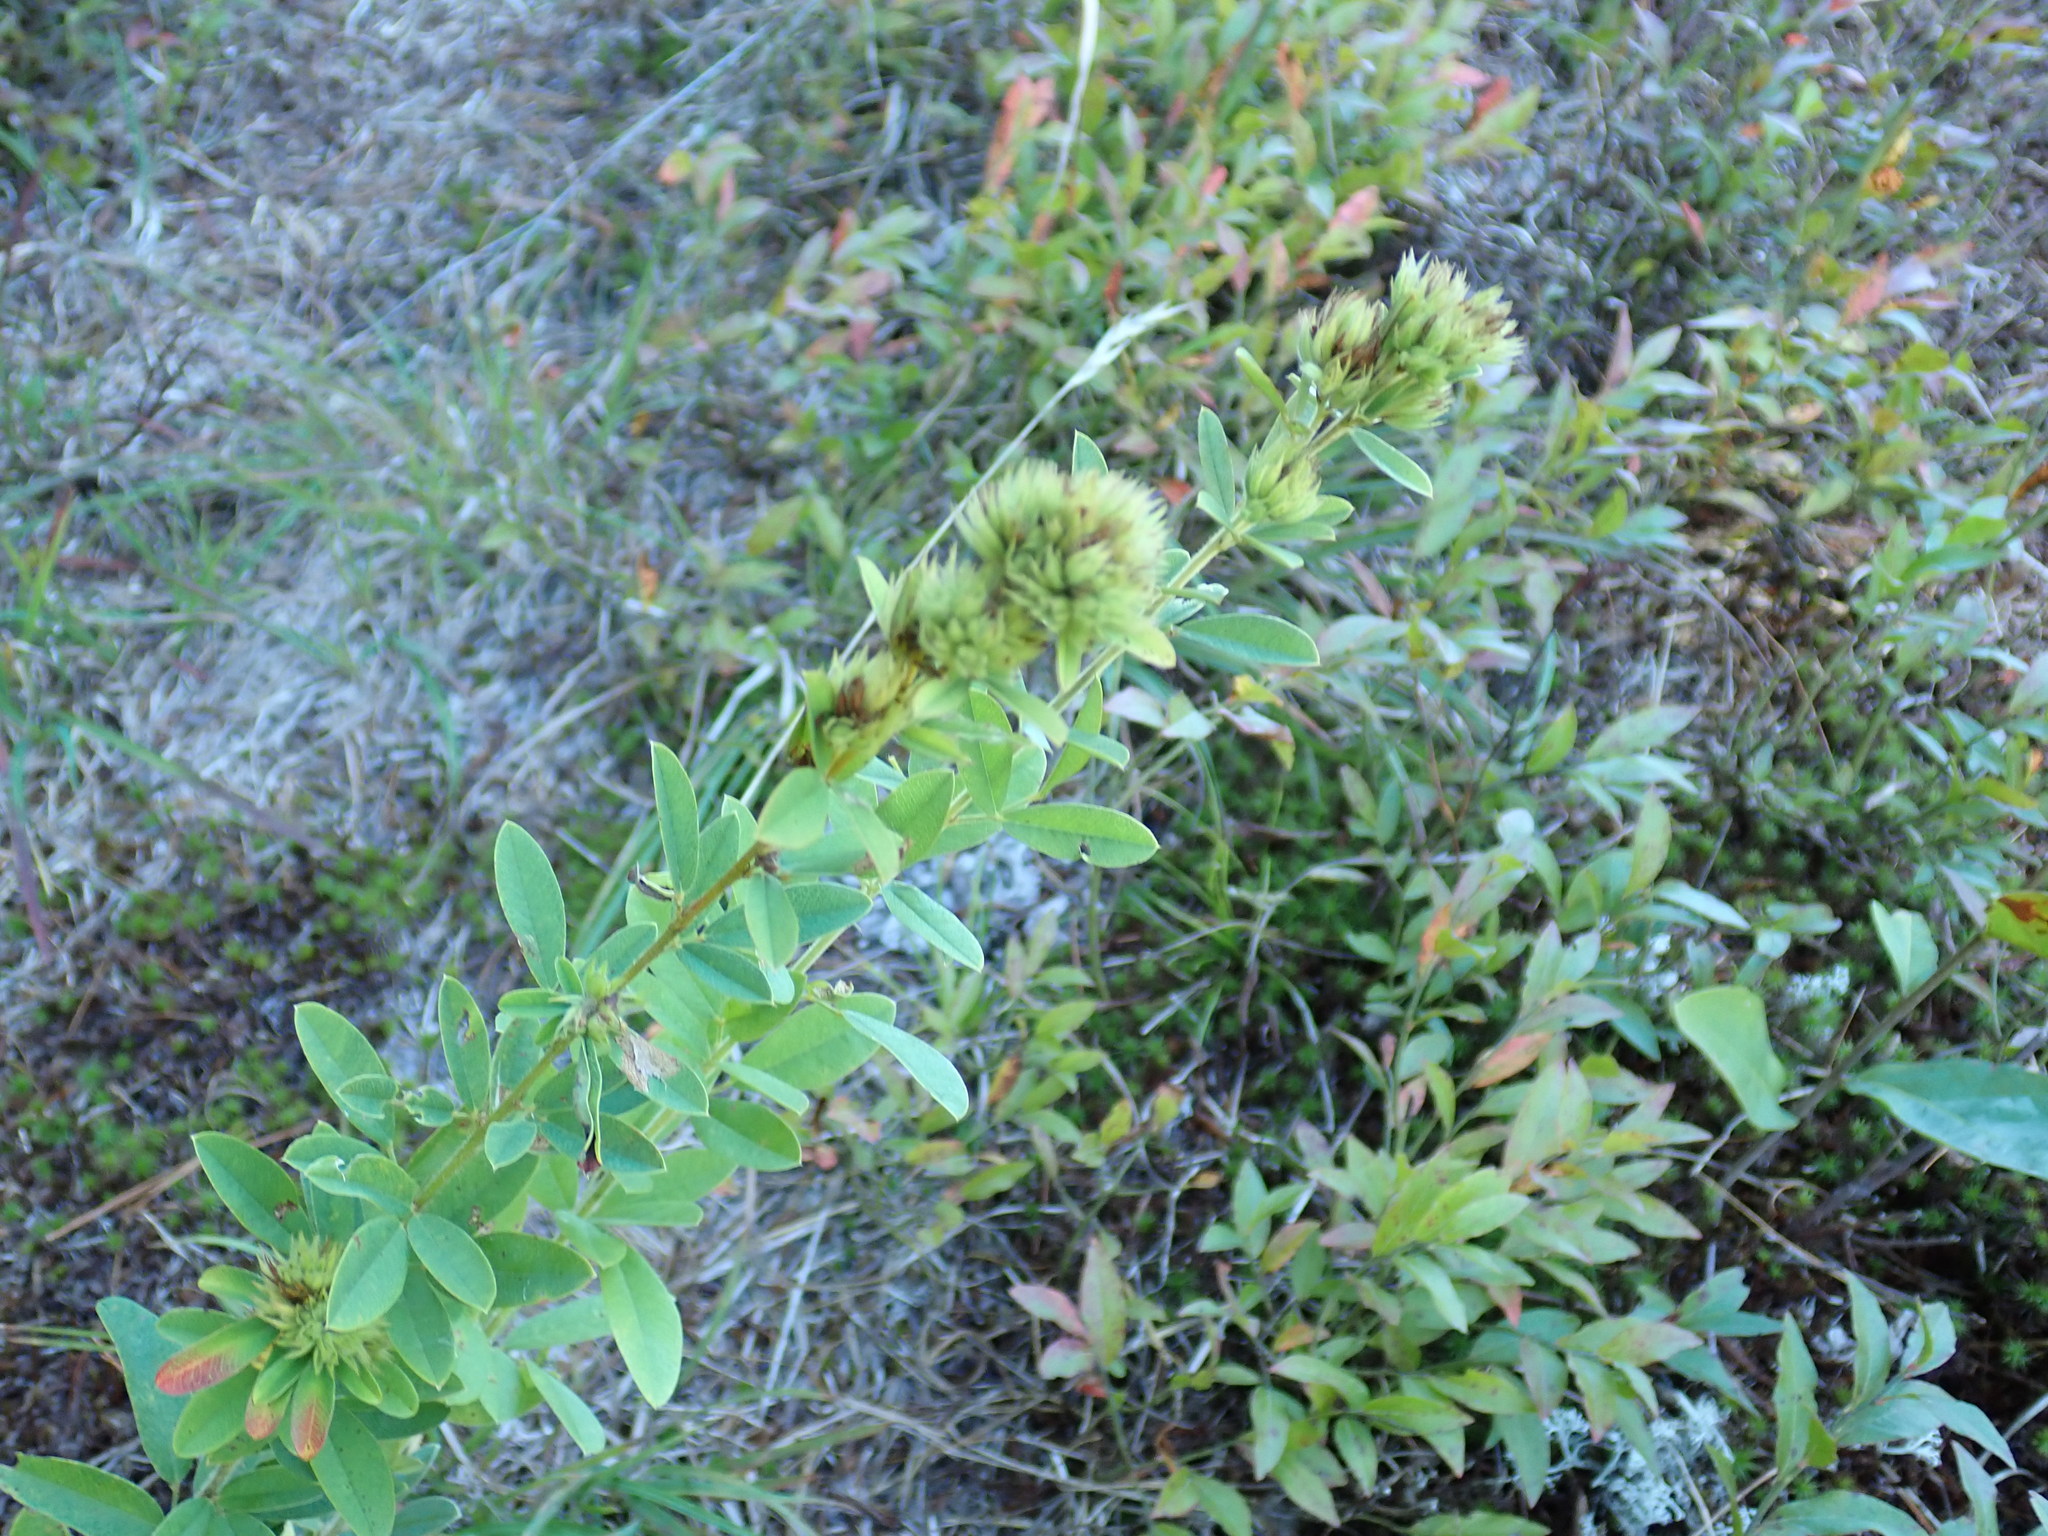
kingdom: Plantae
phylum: Tracheophyta
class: Magnoliopsida
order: Fabales
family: Fabaceae
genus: Lespedeza
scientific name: Lespedeza capitata
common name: Dusty clover
